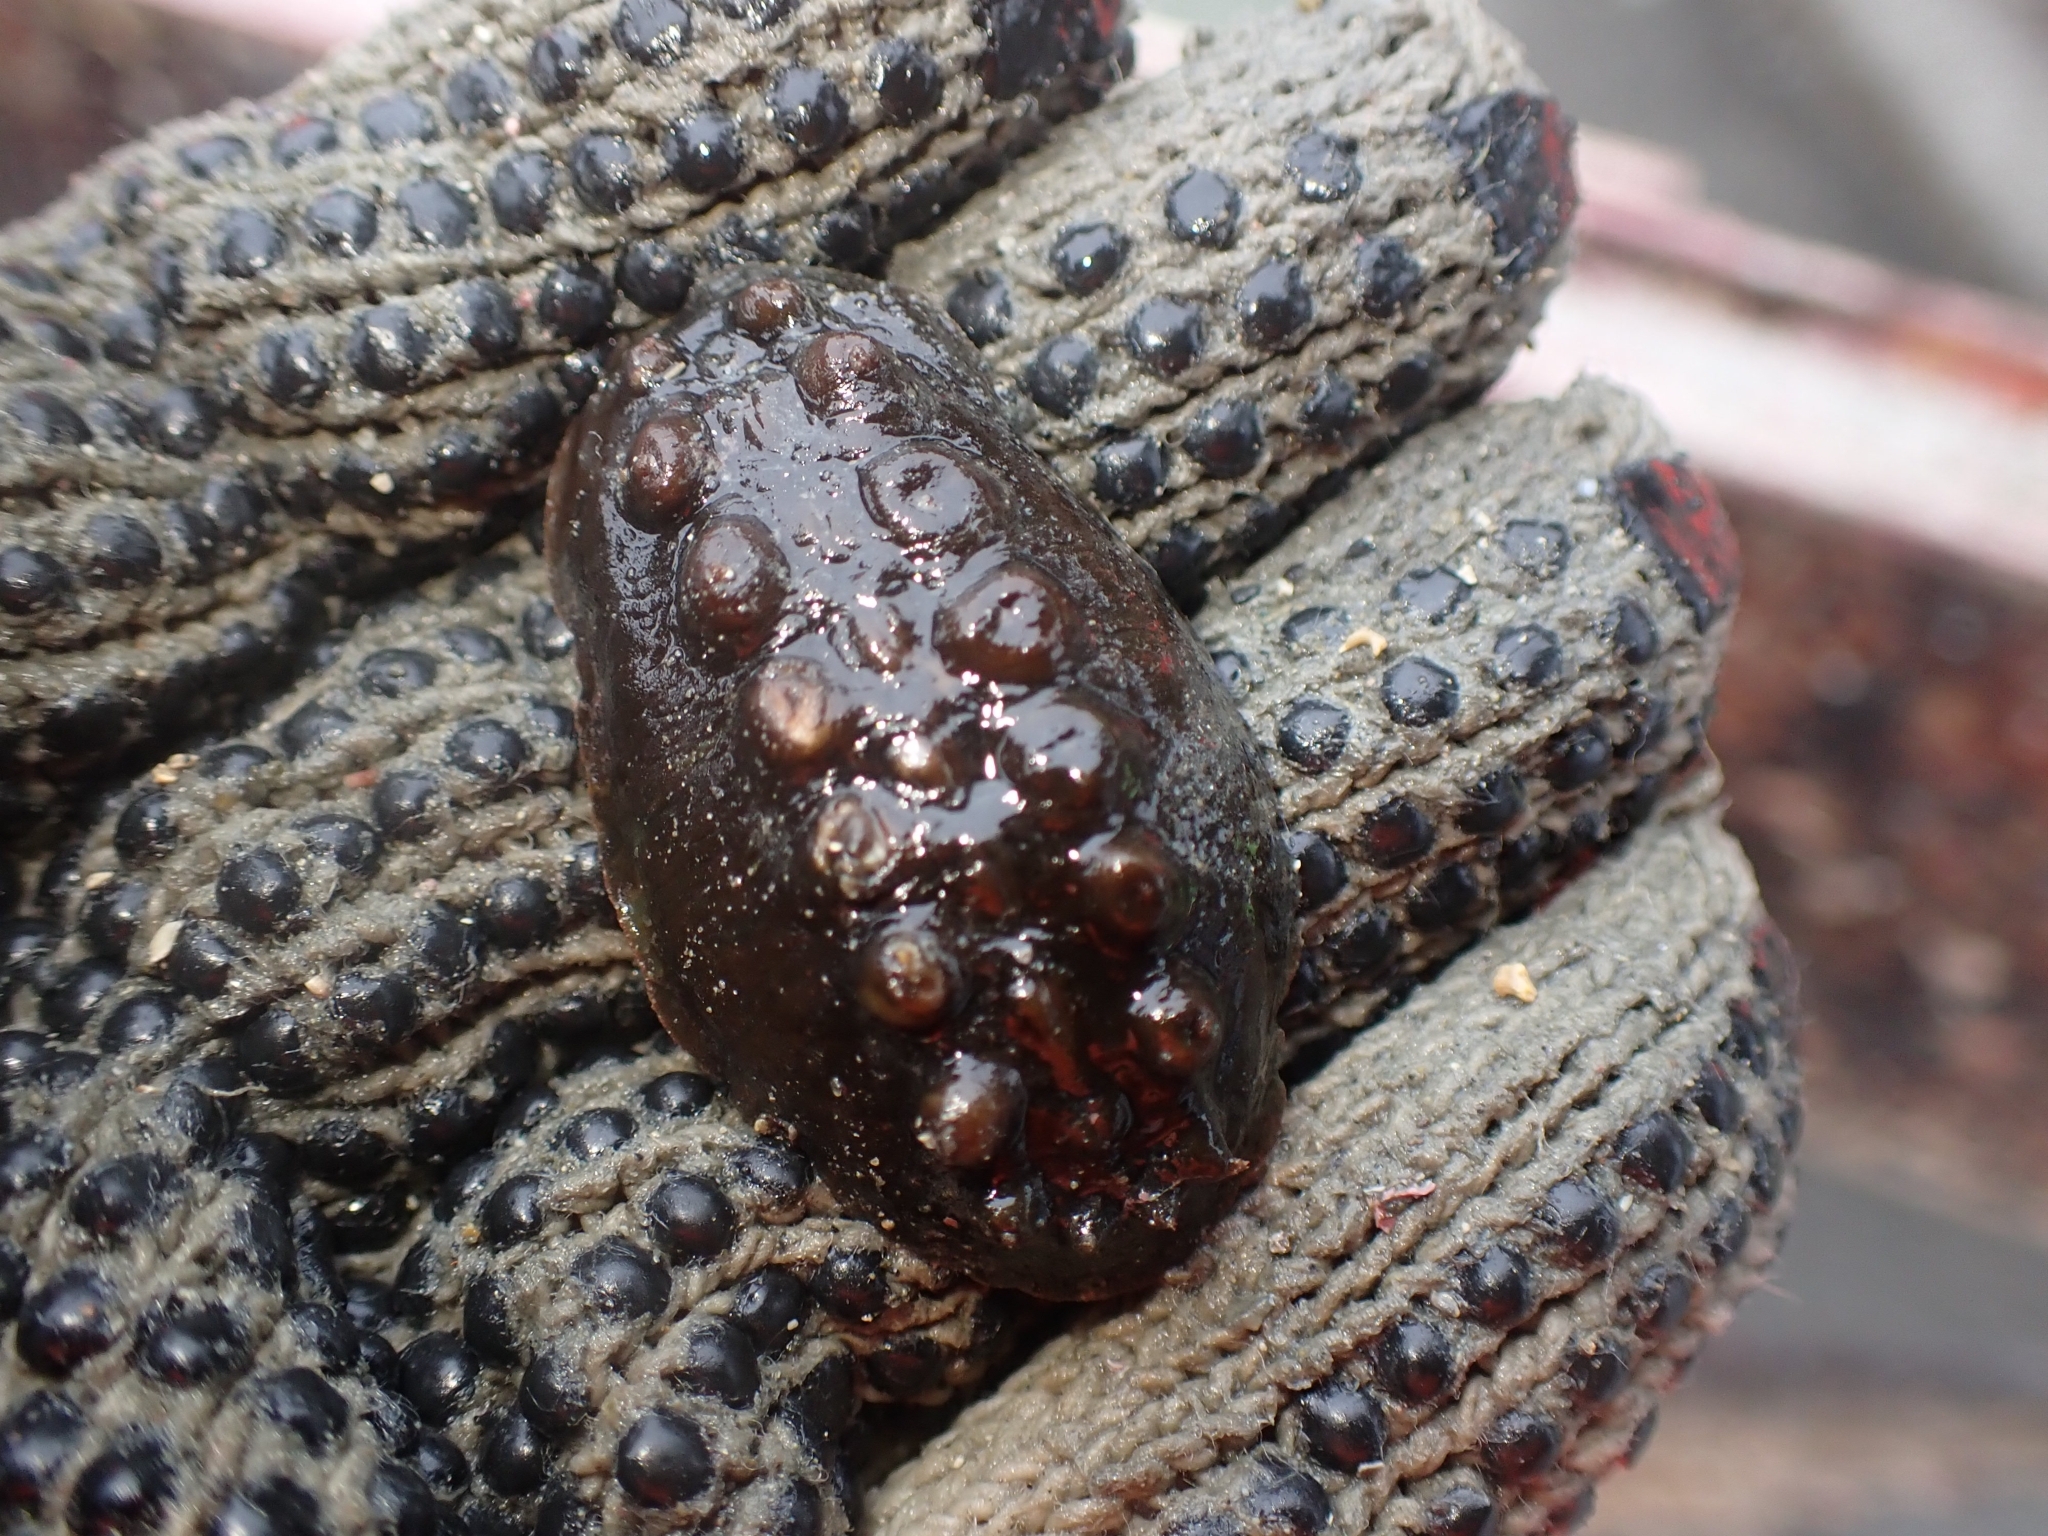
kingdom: Animalia
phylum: Mollusca
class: Polyplacophora
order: Chitonida
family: Acanthochitonidae
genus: Cryptoconchus
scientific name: Cryptoconchus porosus
